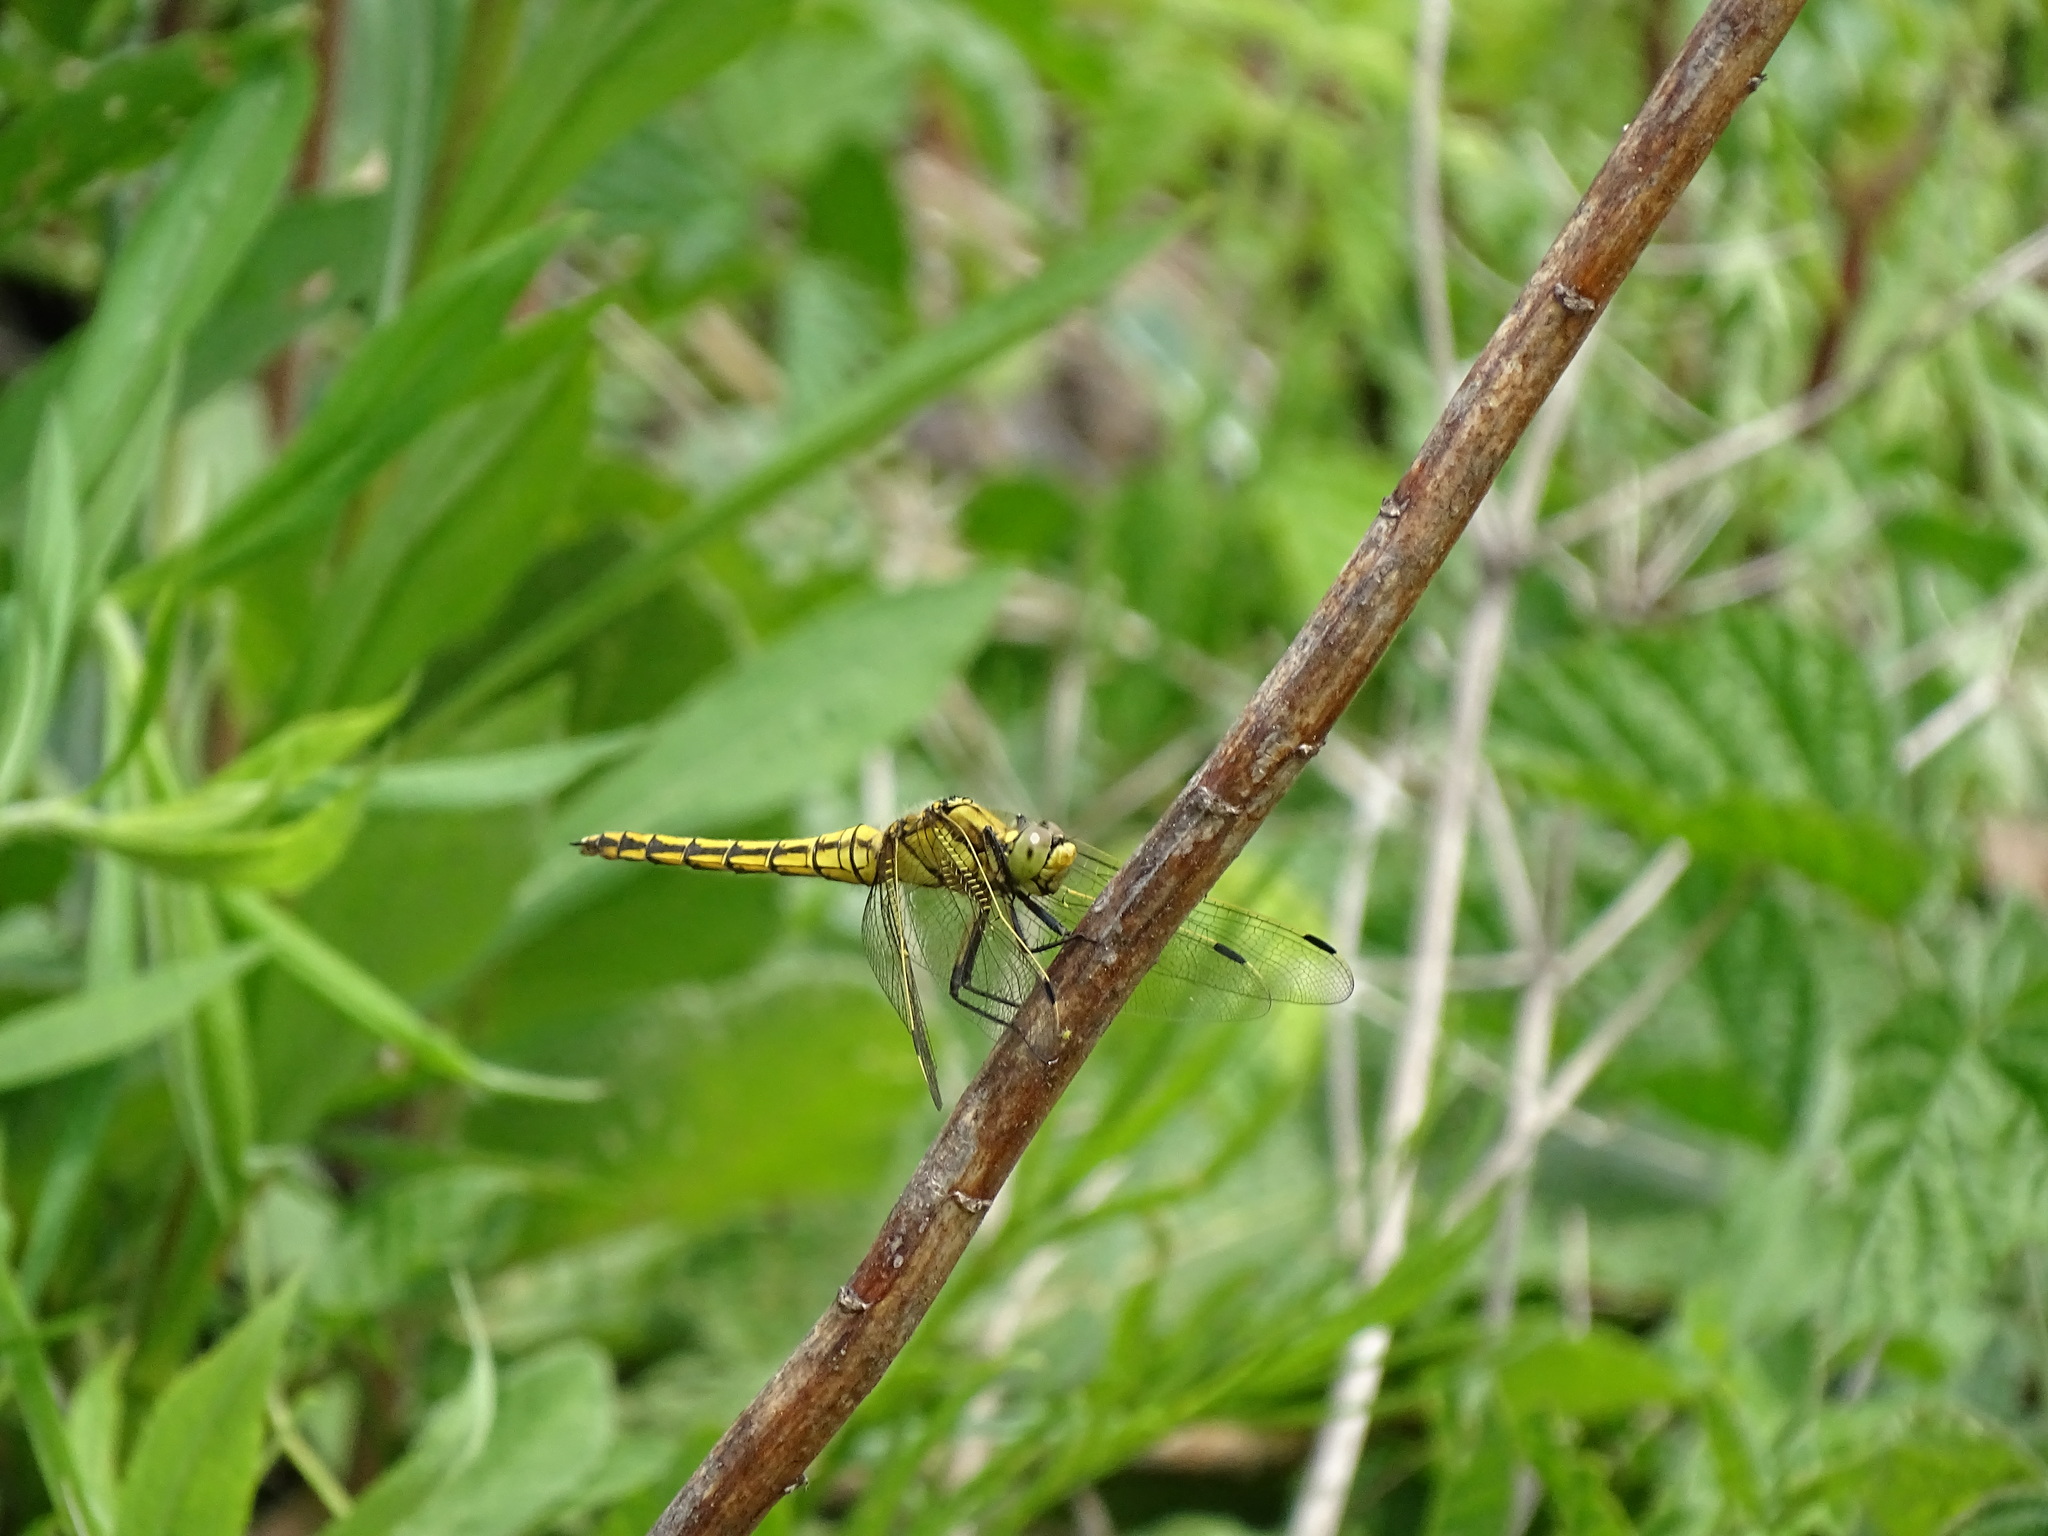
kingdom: Animalia
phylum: Arthropoda
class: Insecta
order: Odonata
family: Libellulidae
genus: Orthetrum
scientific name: Orthetrum cancellatum
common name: Black-tailed skimmer
